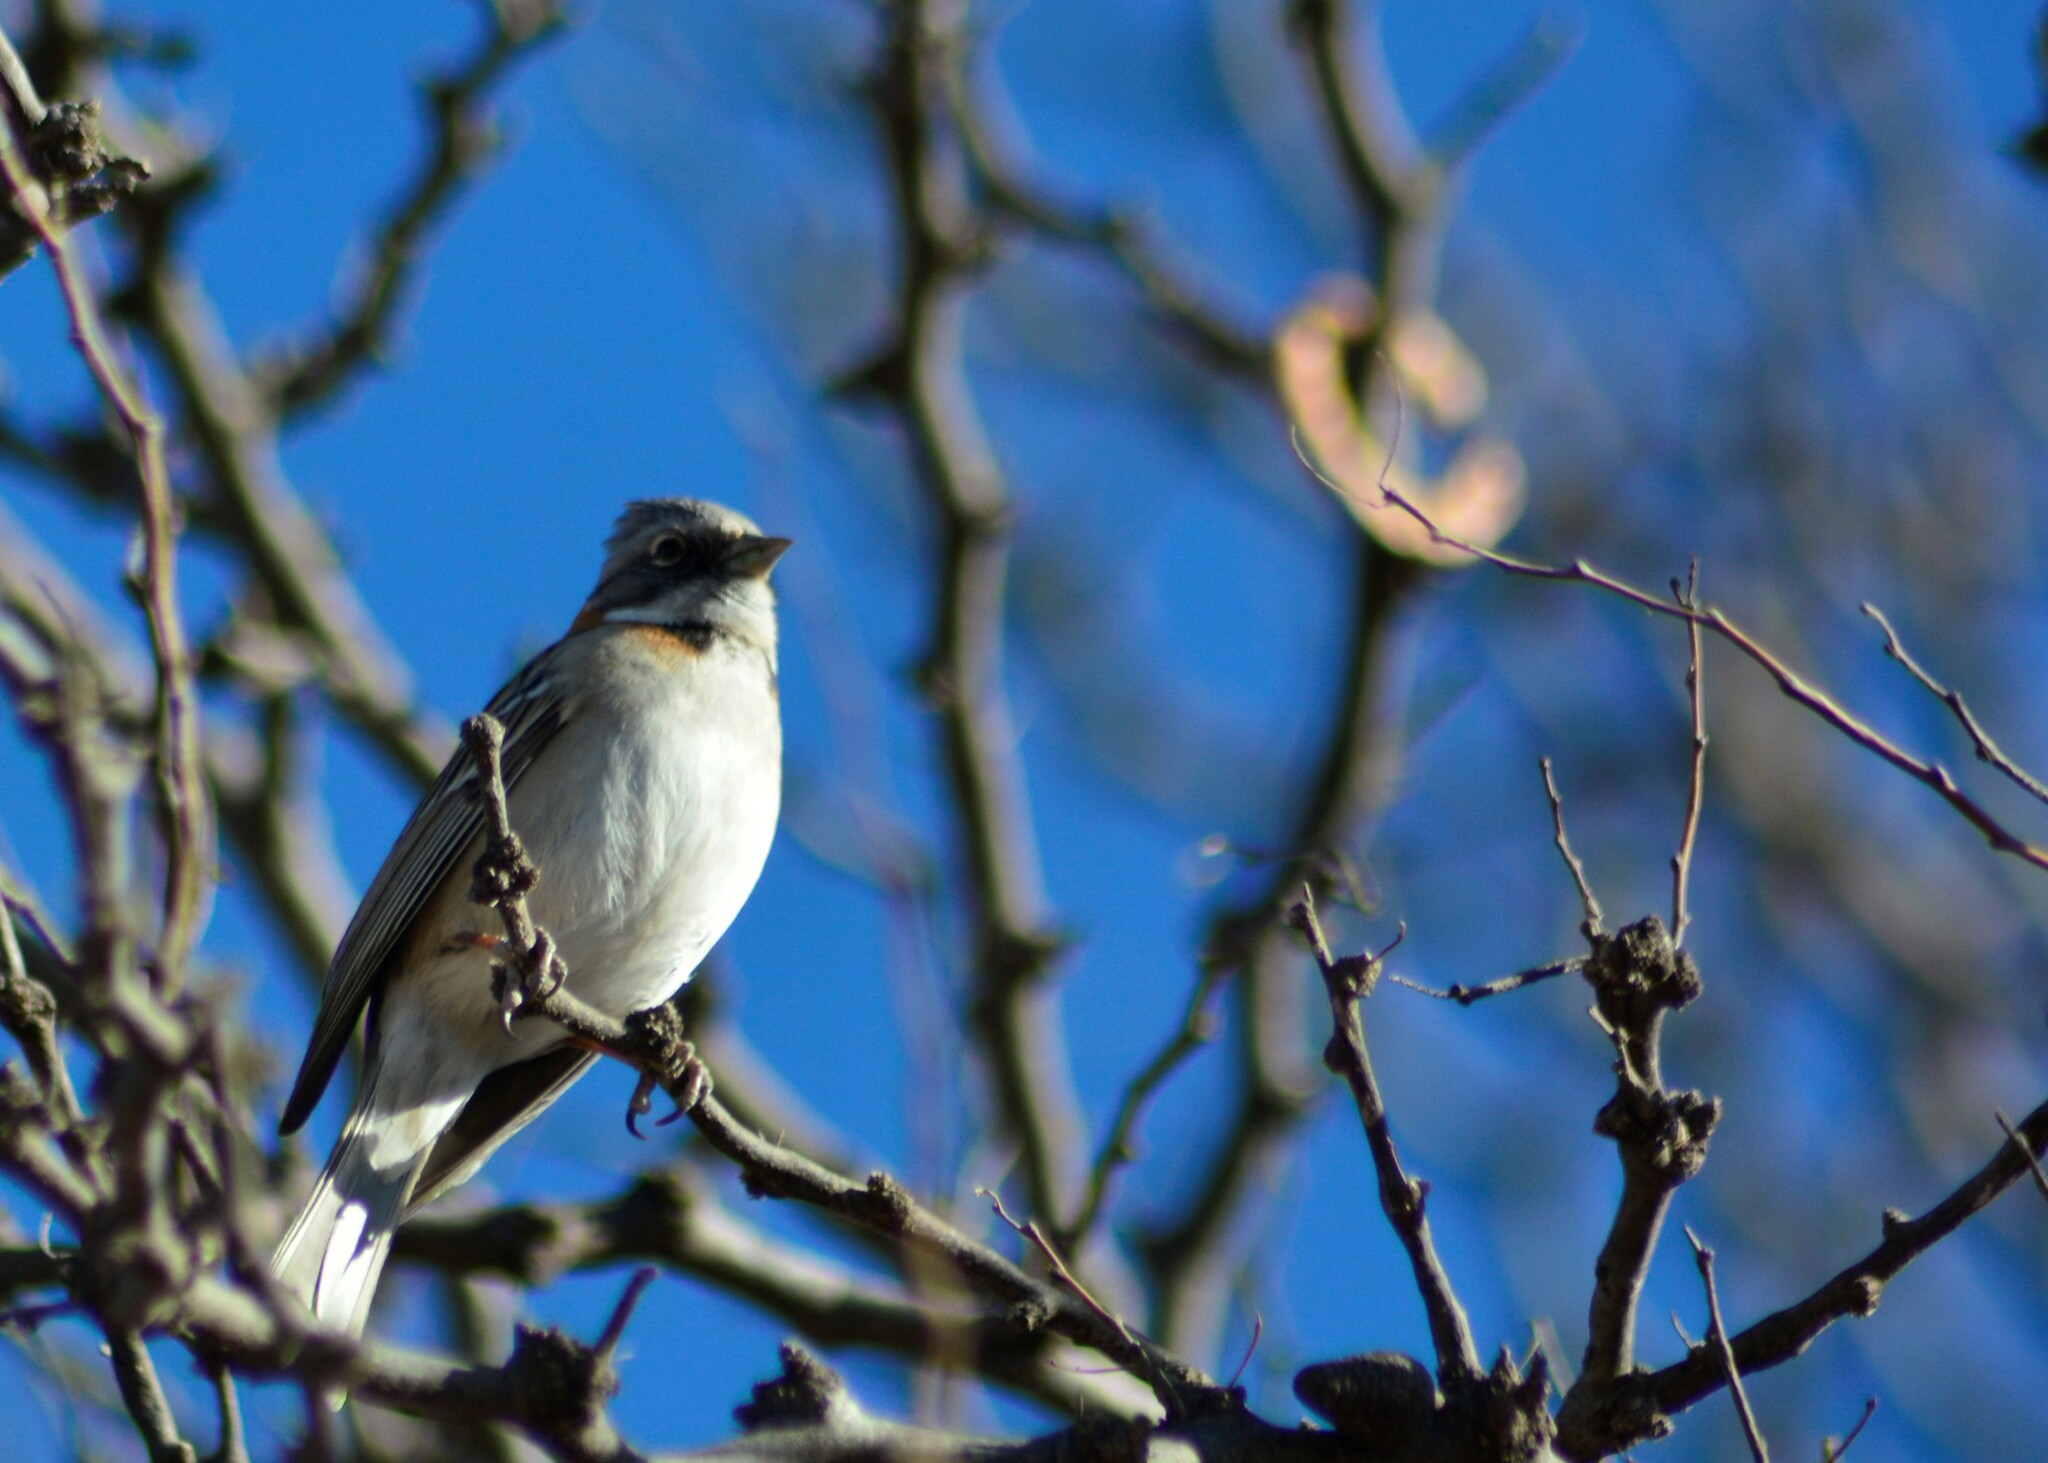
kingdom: Animalia
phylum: Chordata
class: Aves
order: Passeriformes
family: Passerellidae
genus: Zonotrichia
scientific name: Zonotrichia capensis
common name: Rufous-collared sparrow
